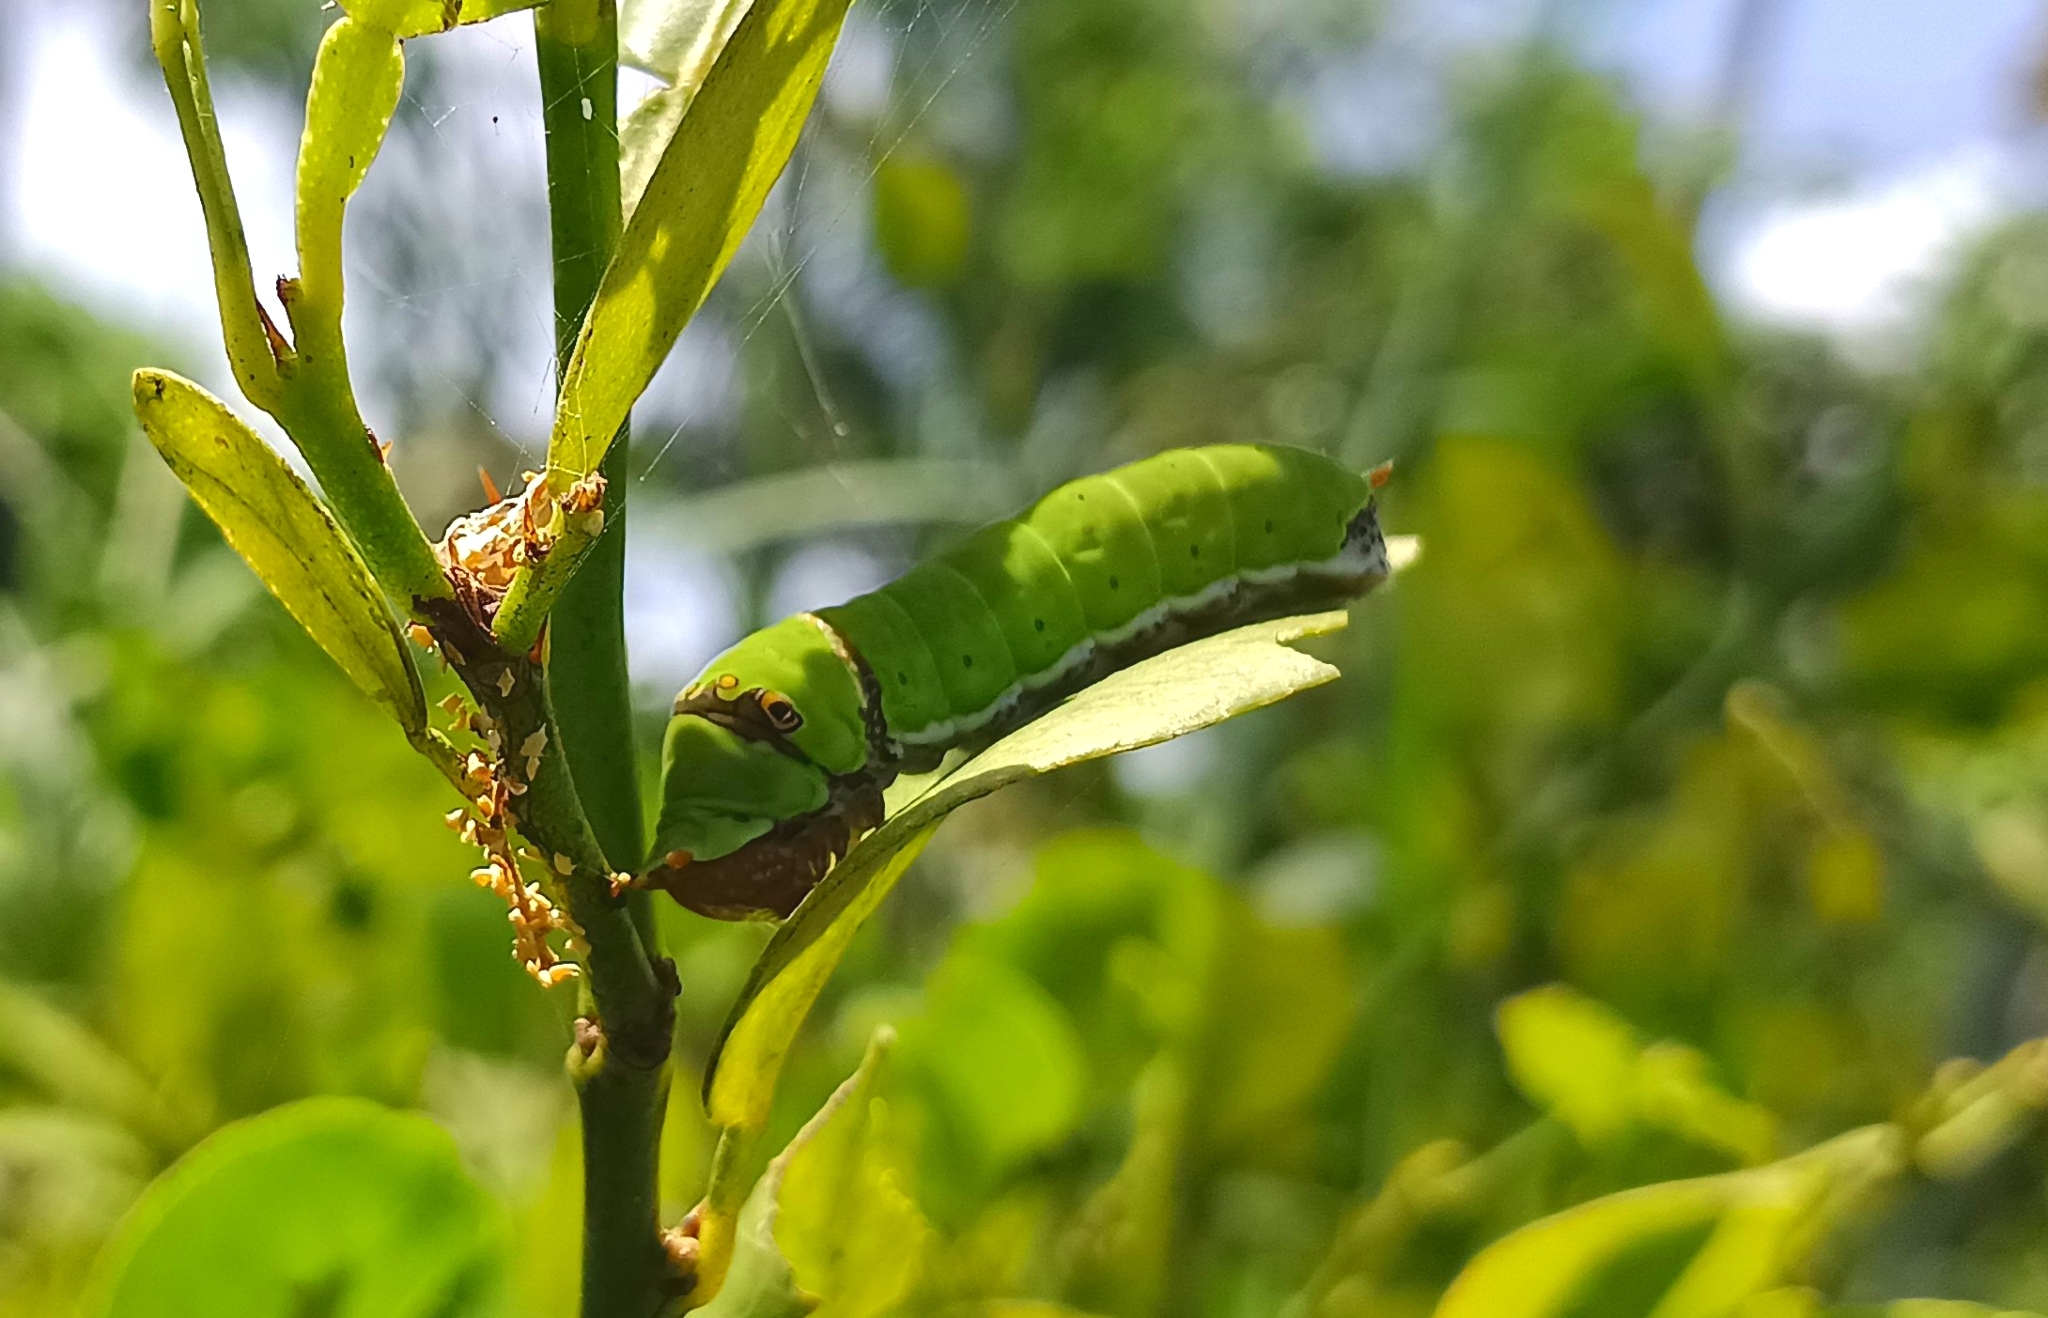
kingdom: Animalia
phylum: Arthropoda
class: Insecta
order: Lepidoptera
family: Papilionidae
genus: Papilio
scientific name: Papilio demoleus
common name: Lime butterfly
